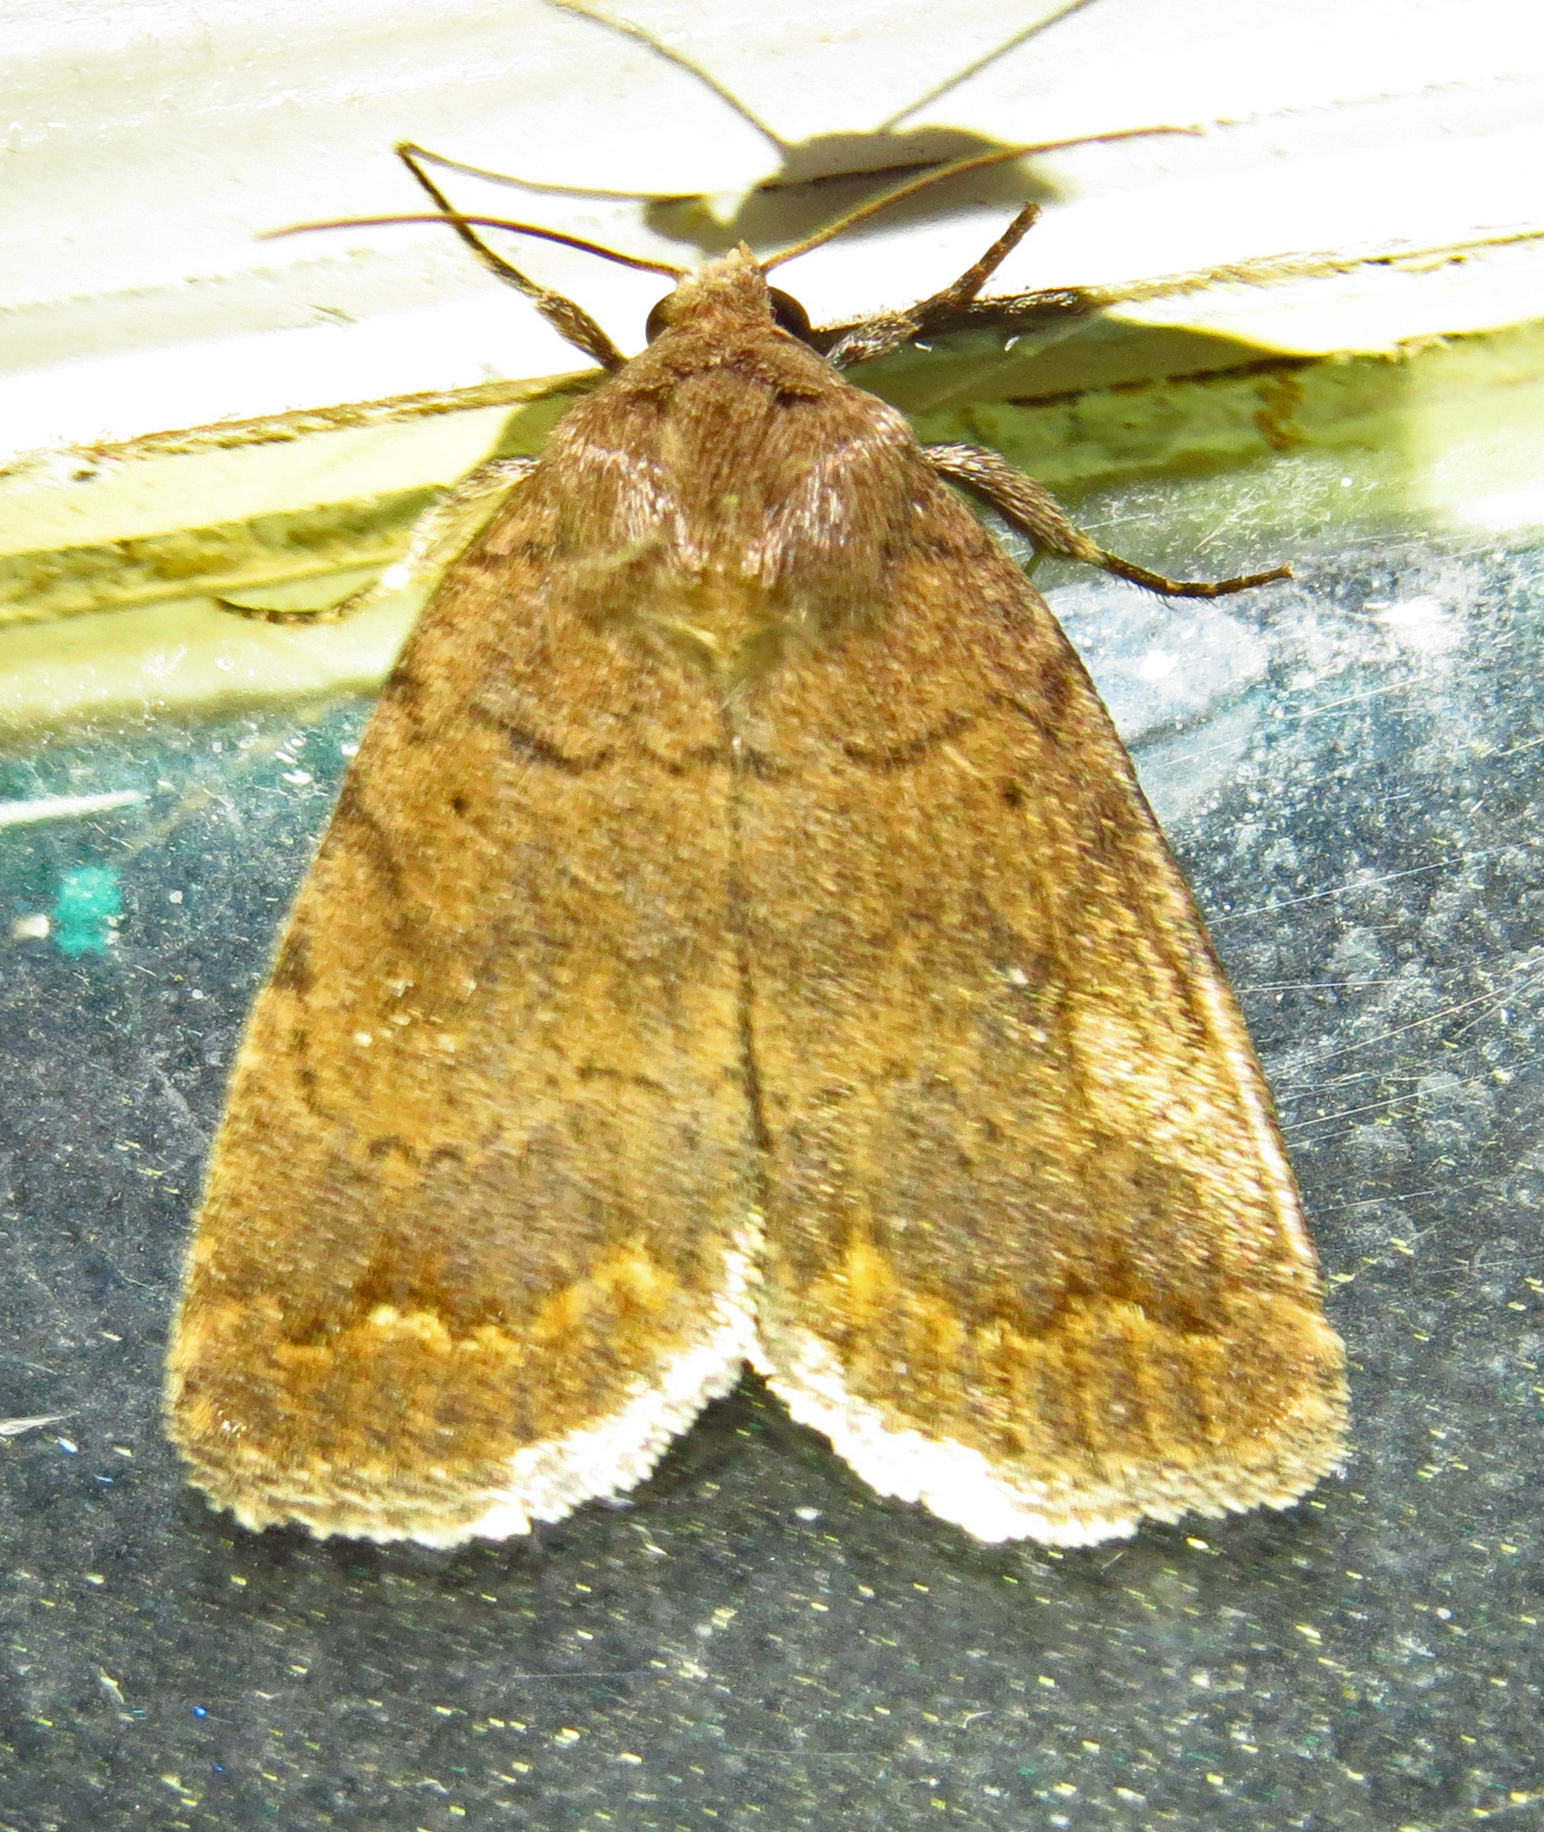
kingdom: Animalia
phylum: Arthropoda
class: Insecta
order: Lepidoptera
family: Noctuidae
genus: Athetis
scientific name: Athetis tarda
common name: Slowpoke moth
